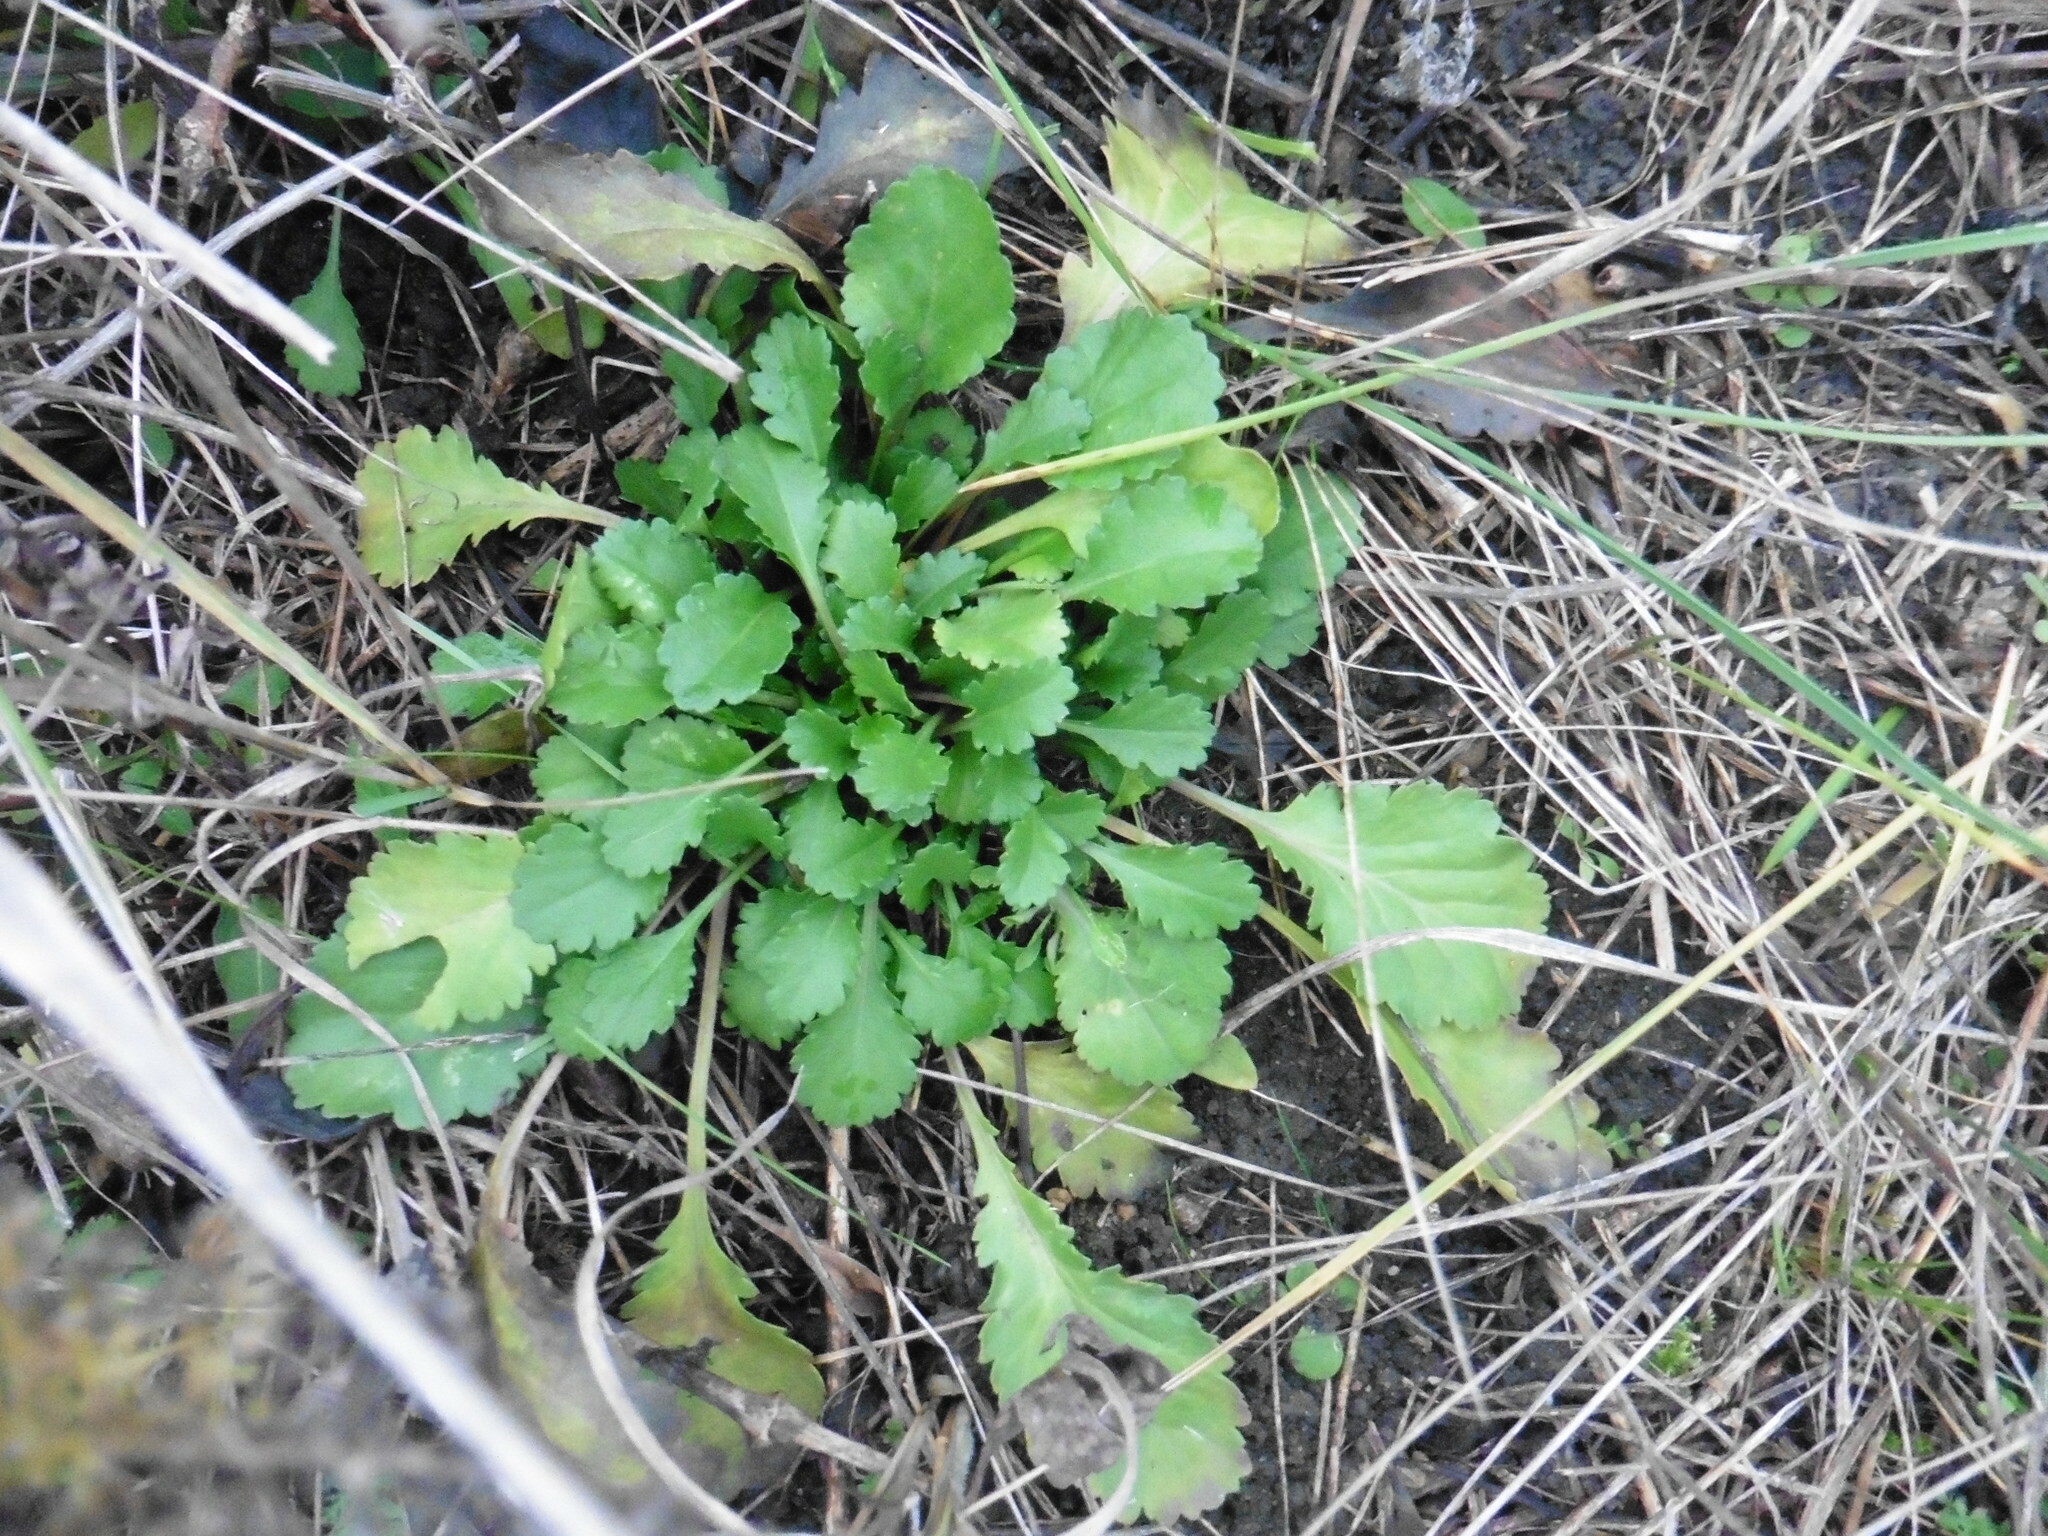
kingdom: Plantae
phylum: Tracheophyta
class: Magnoliopsida
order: Asterales
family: Asteraceae
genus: Leucanthemum
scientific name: Leucanthemum vulgare
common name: Oxeye daisy
